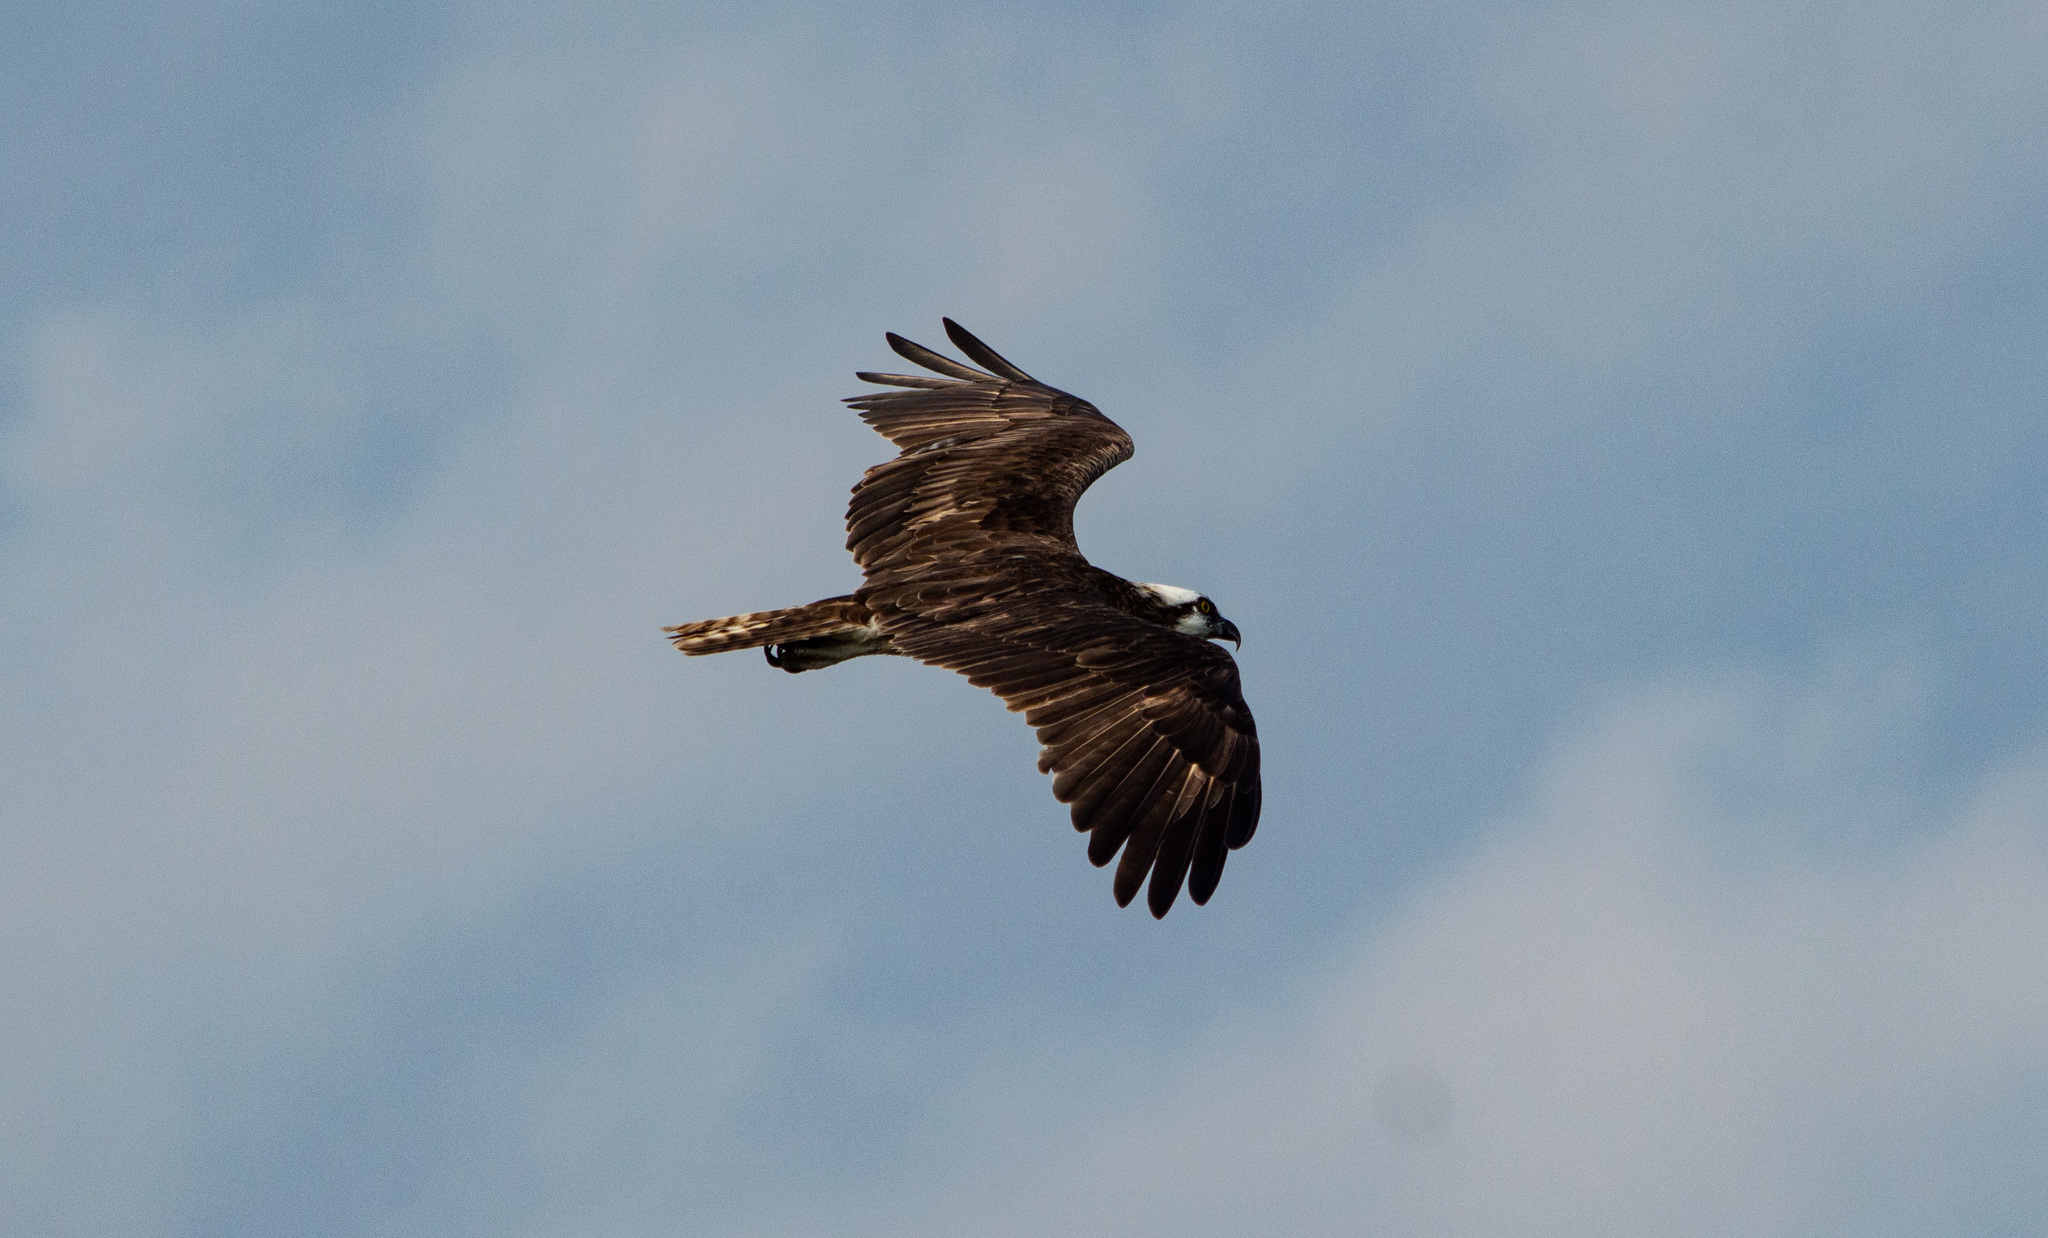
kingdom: Animalia
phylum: Chordata
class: Aves
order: Accipitriformes
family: Pandionidae
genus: Pandion
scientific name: Pandion haliaetus
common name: Osprey
